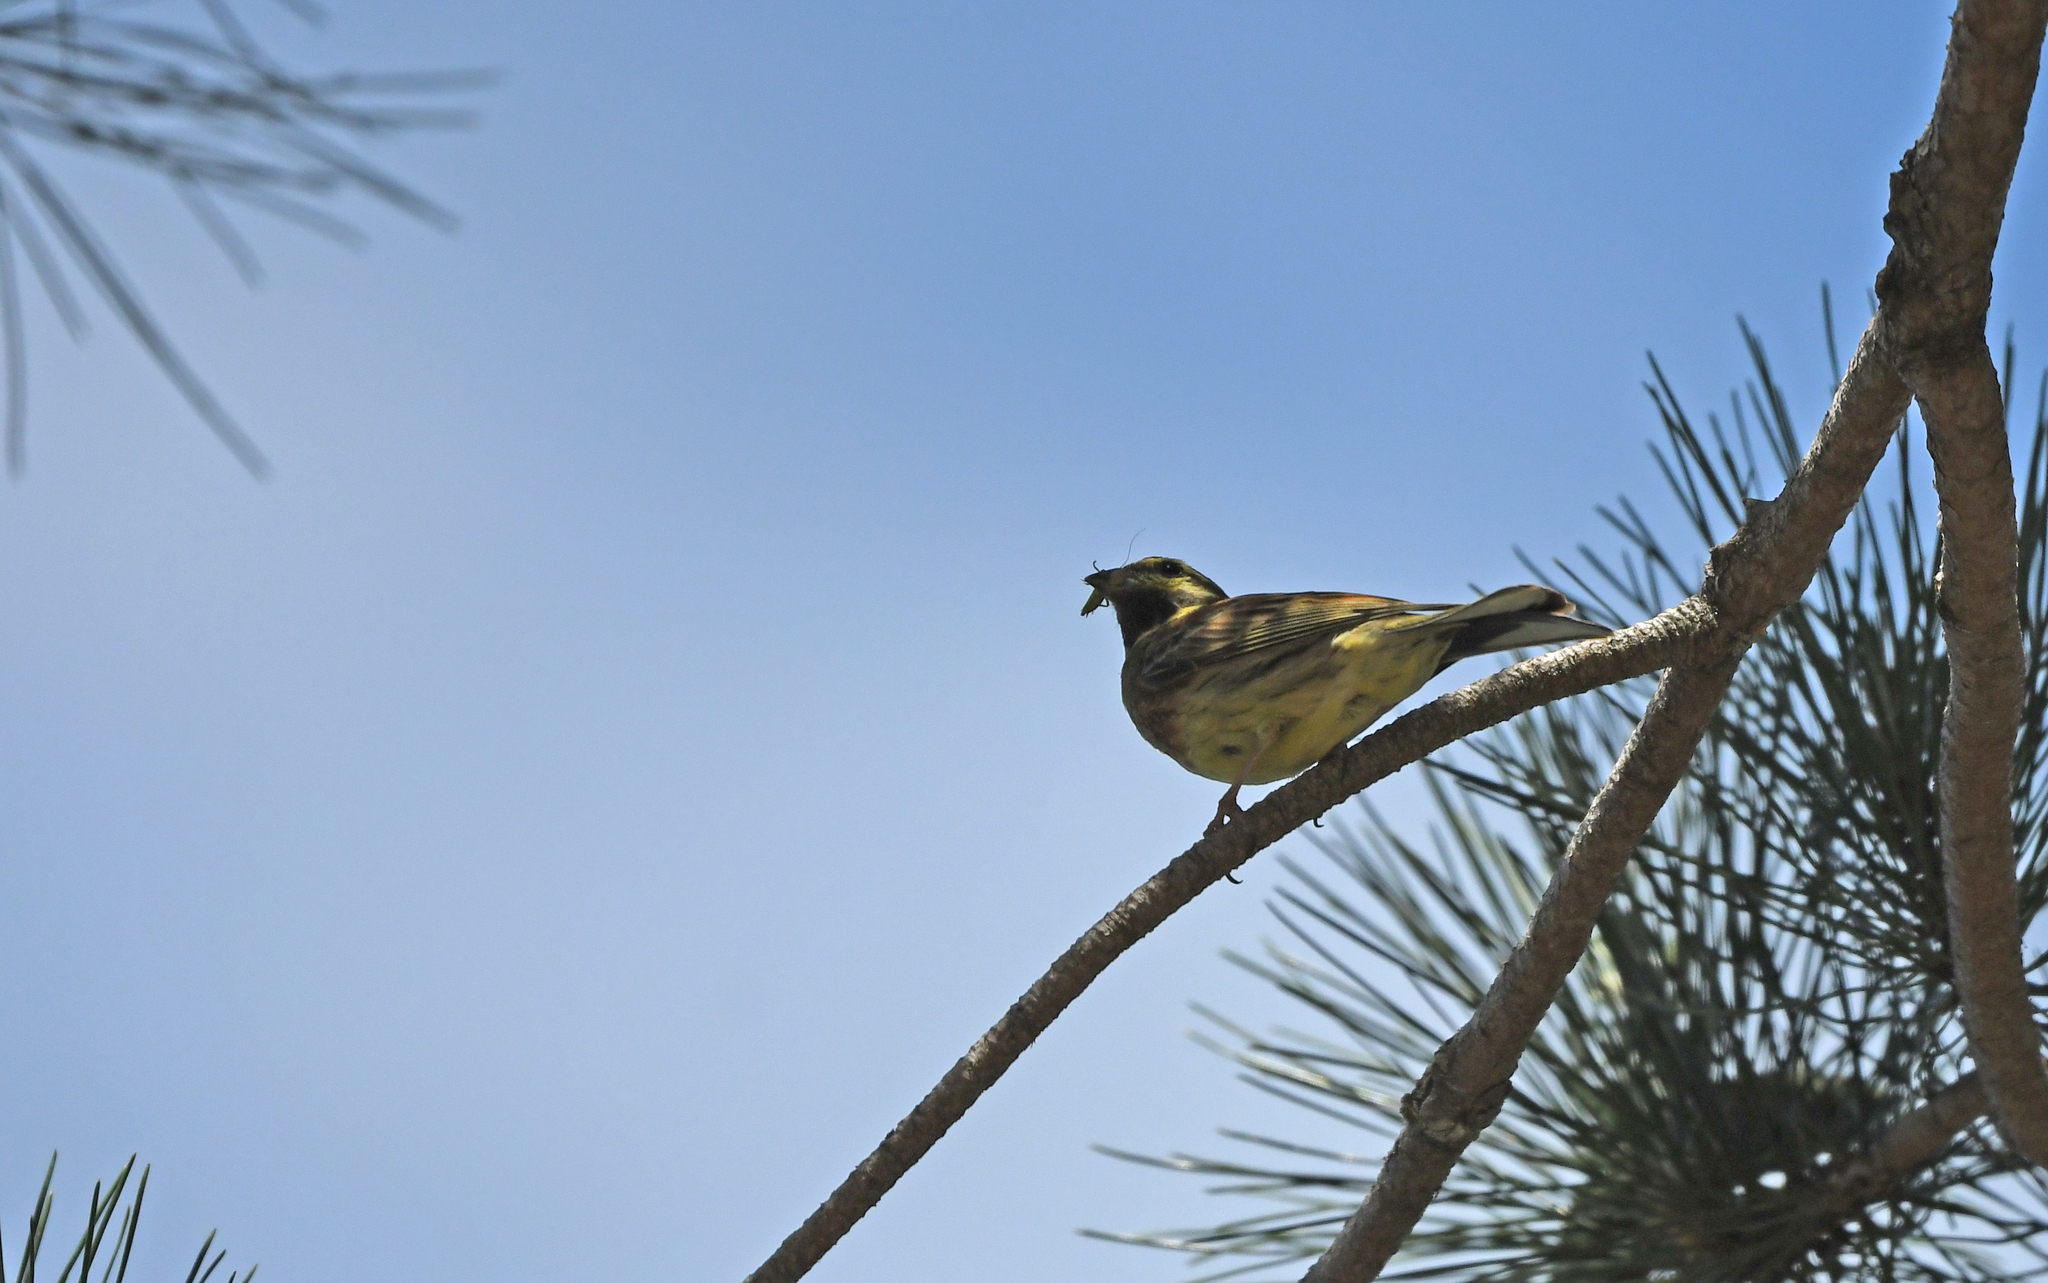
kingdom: Animalia
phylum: Chordata
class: Aves
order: Passeriformes
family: Emberizidae
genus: Emberiza
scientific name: Emberiza cirlus
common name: Cirl bunting
